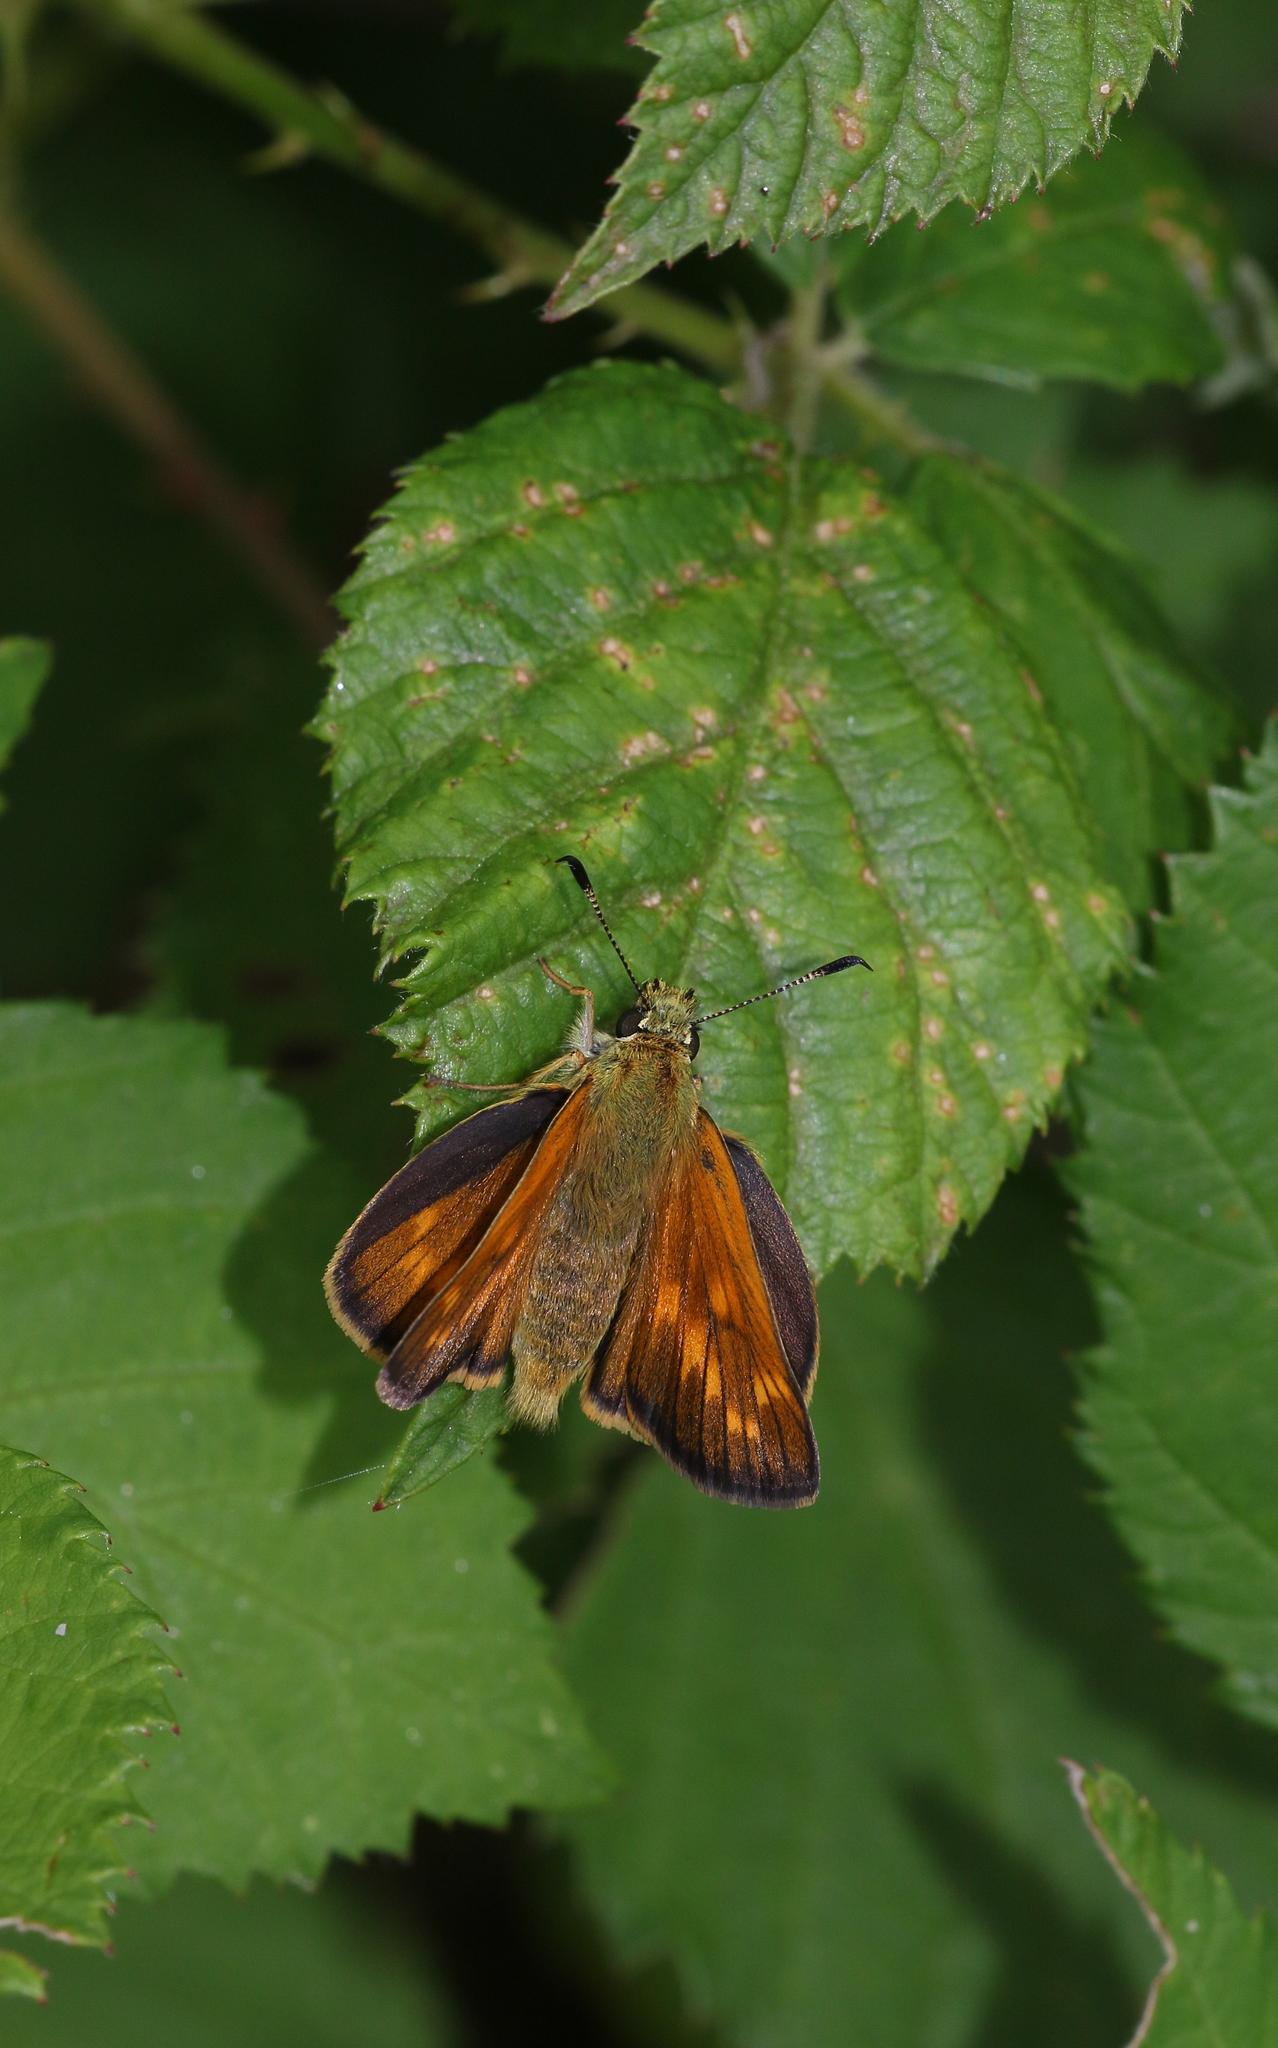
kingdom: Animalia
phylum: Arthropoda
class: Insecta
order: Lepidoptera
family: Hesperiidae
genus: Ochlodes
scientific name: Ochlodes venata
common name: Large skipper
